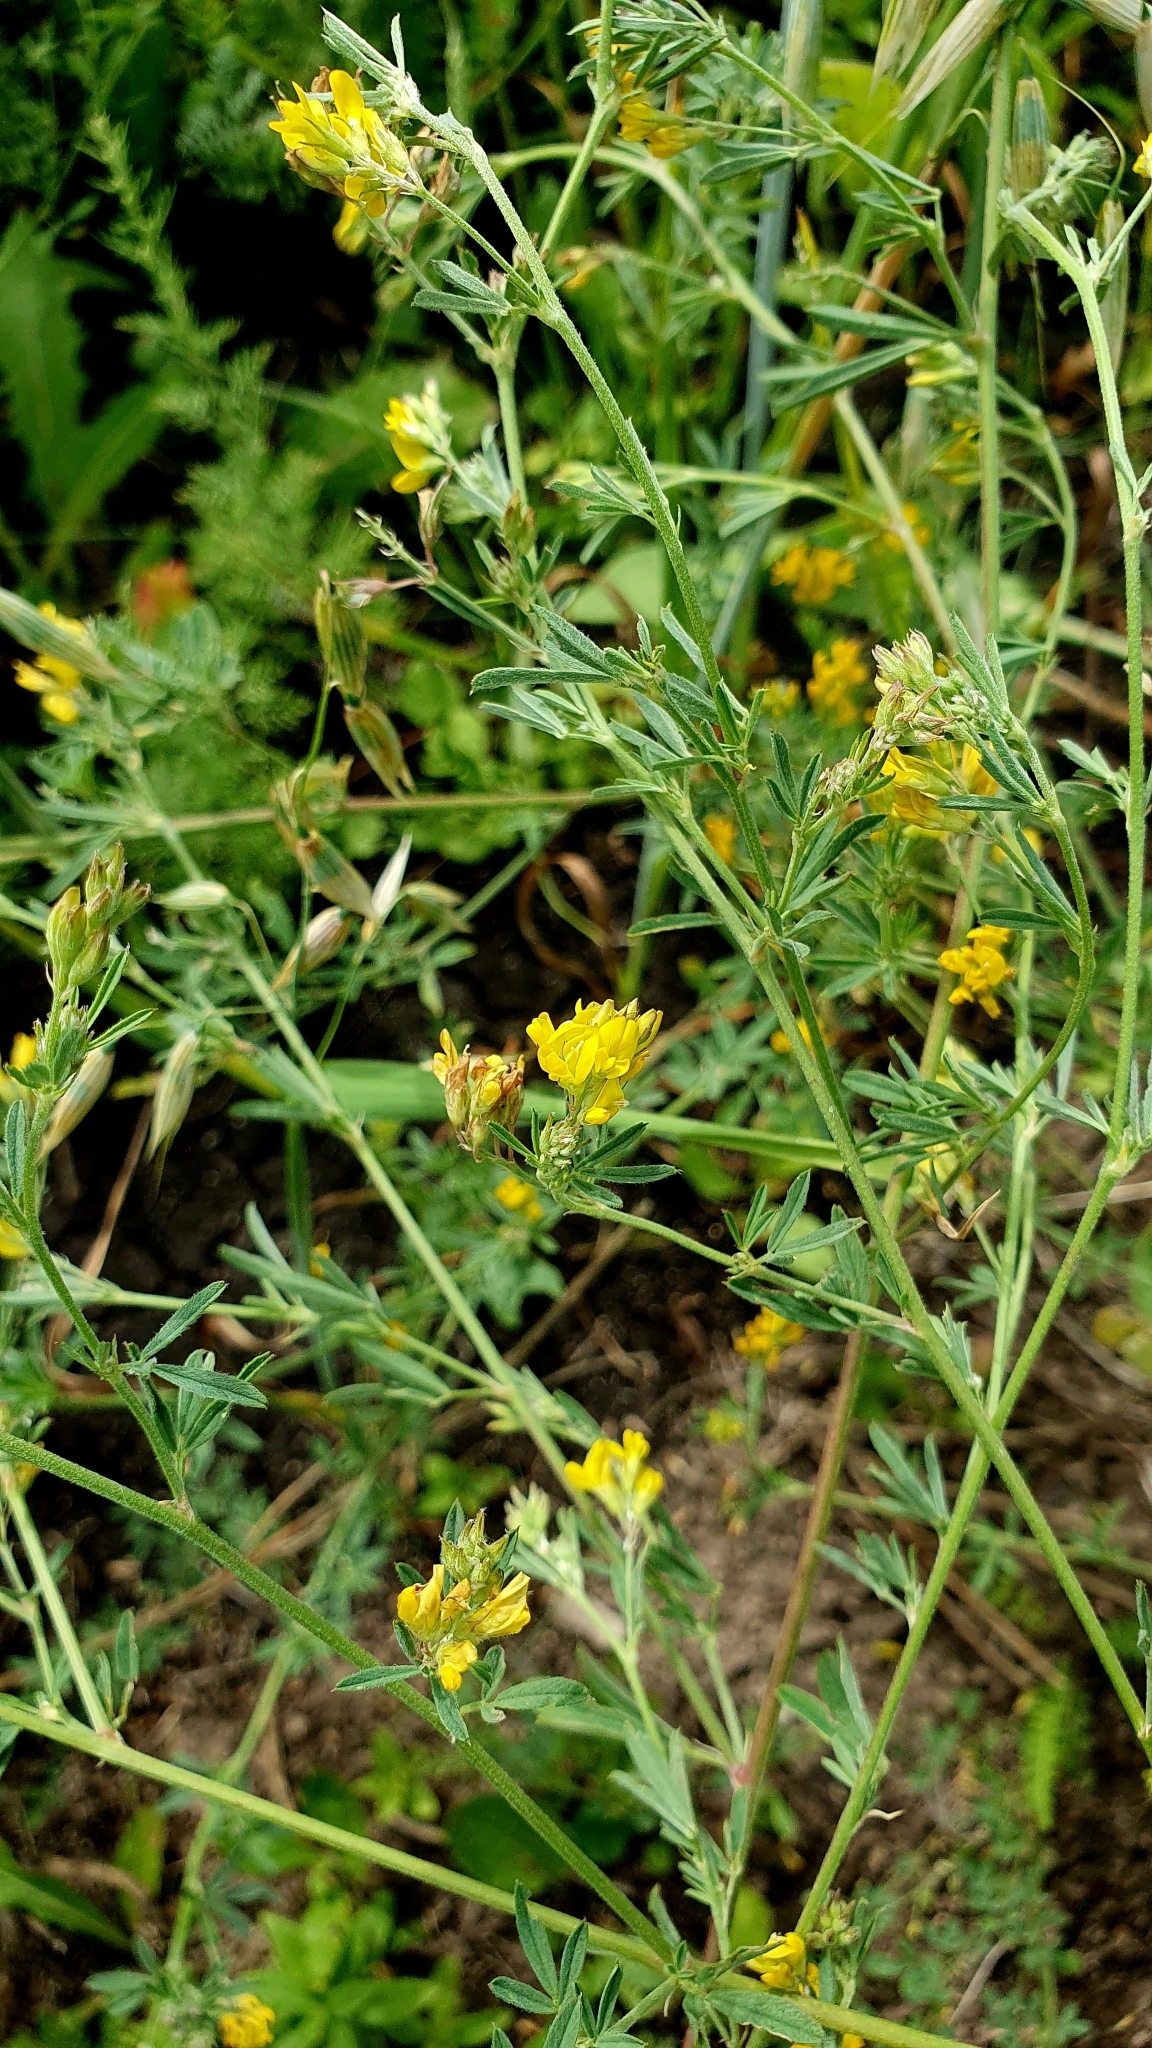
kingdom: Plantae
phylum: Tracheophyta
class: Magnoliopsida
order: Fabales
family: Fabaceae
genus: Medicago
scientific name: Medicago falcata
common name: Sickle medick
